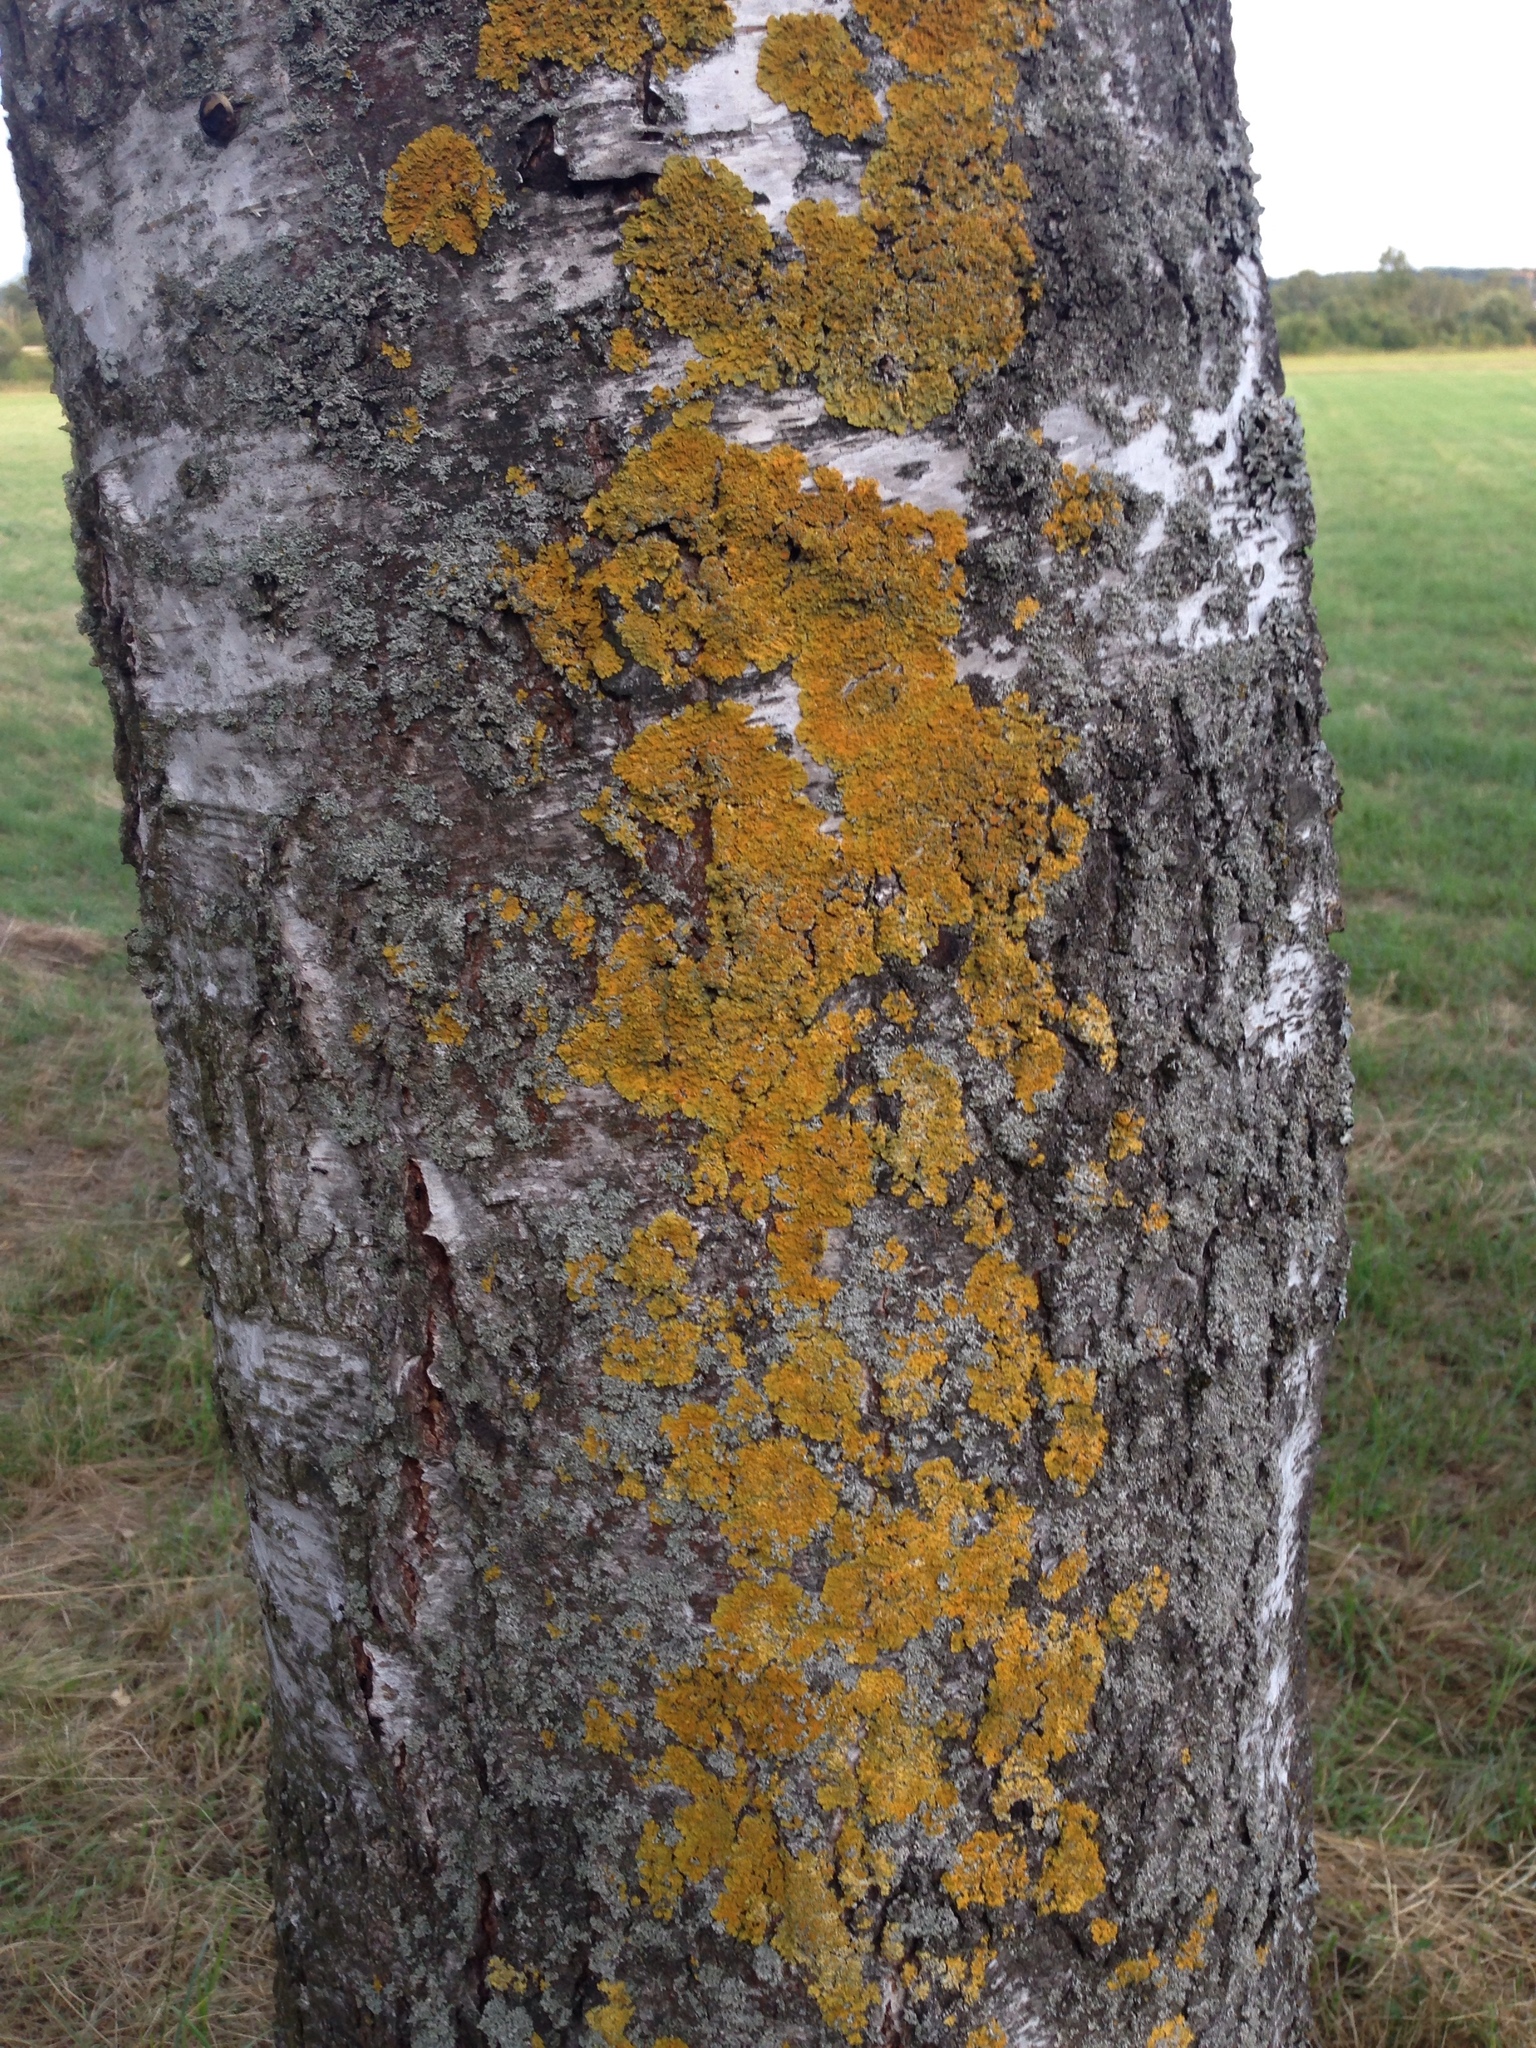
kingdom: Fungi
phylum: Ascomycota
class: Lecanoromycetes
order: Teloschistales
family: Teloschistaceae
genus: Xanthoria
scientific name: Xanthoria parietina
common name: Common orange lichen
